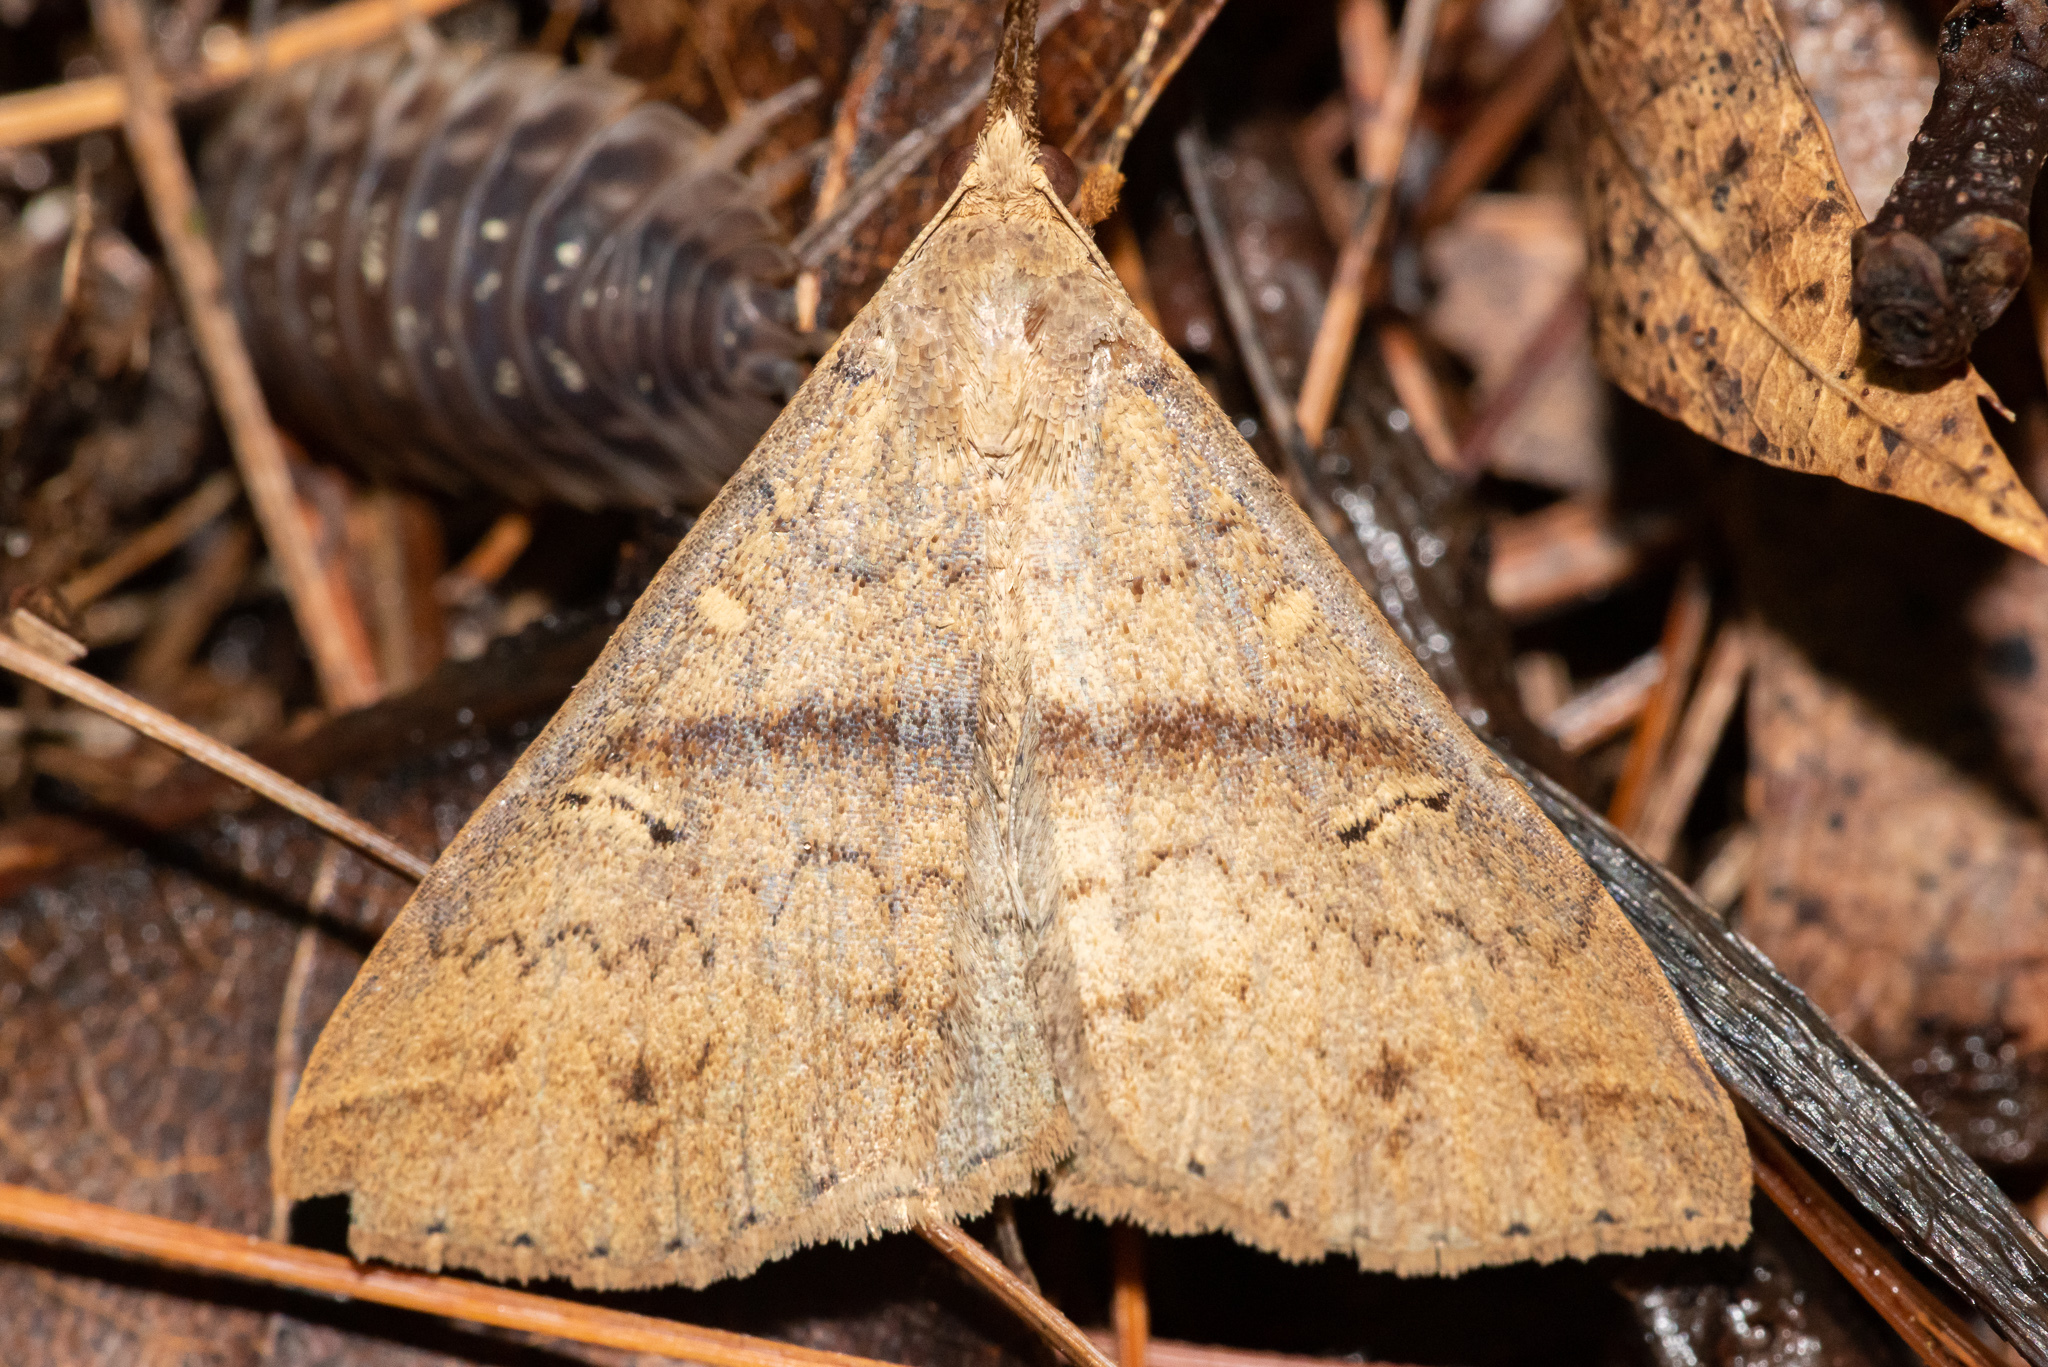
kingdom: Animalia
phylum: Arthropoda
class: Insecta
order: Lepidoptera
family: Erebidae
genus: Renia
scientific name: Renia discoloralis
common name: Discolored renia moth
